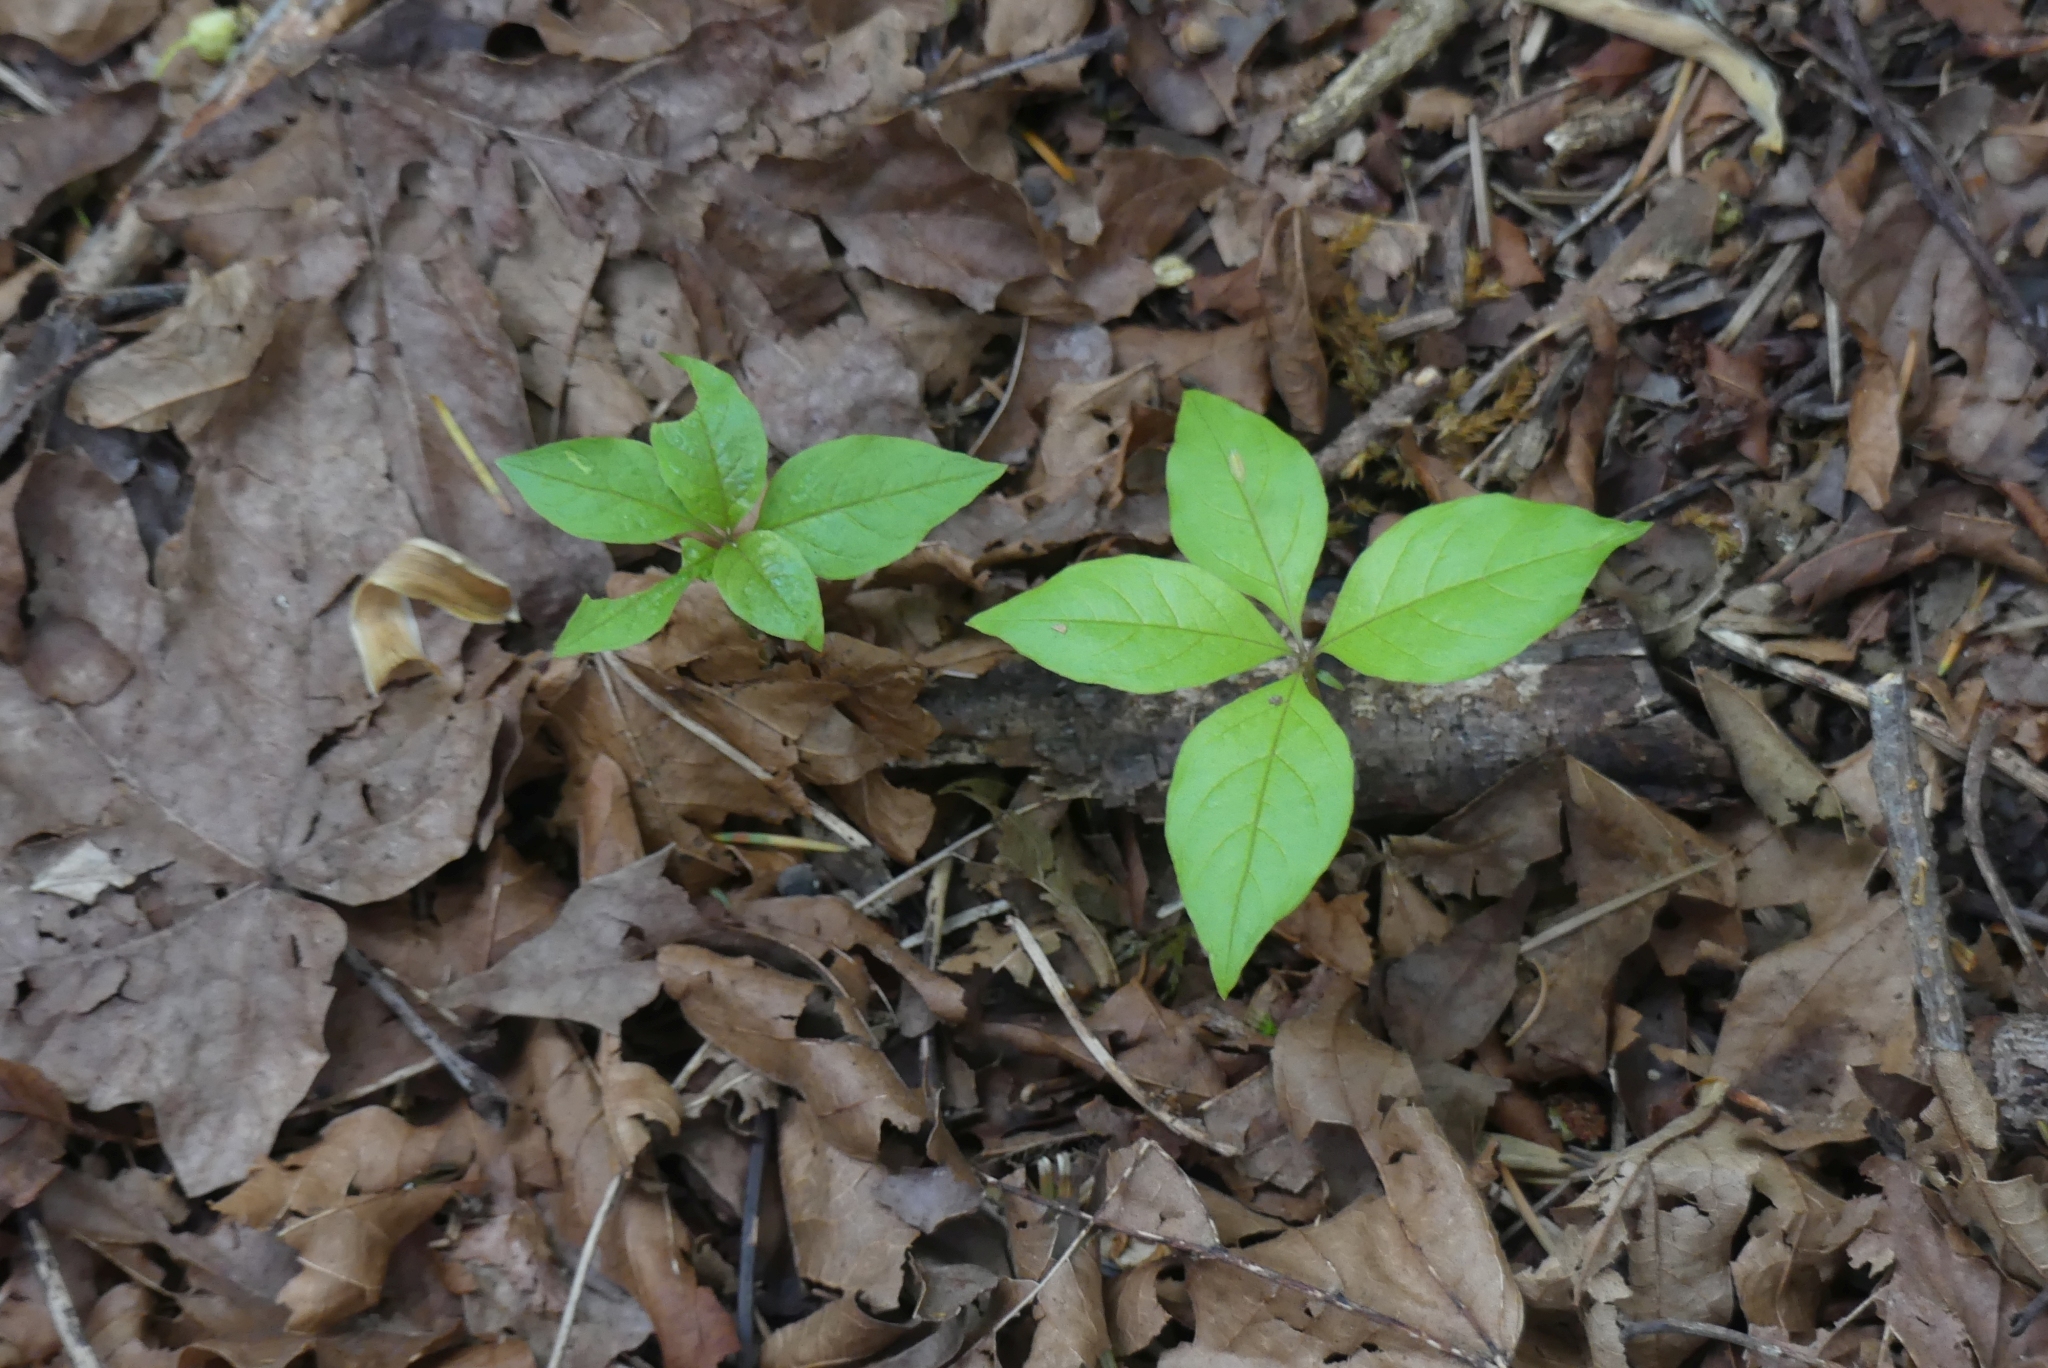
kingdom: Plantae
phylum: Tracheophyta
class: Magnoliopsida
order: Ericales
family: Primulaceae
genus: Lysimachia
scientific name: Lysimachia latifolia
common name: Pacific starflower
